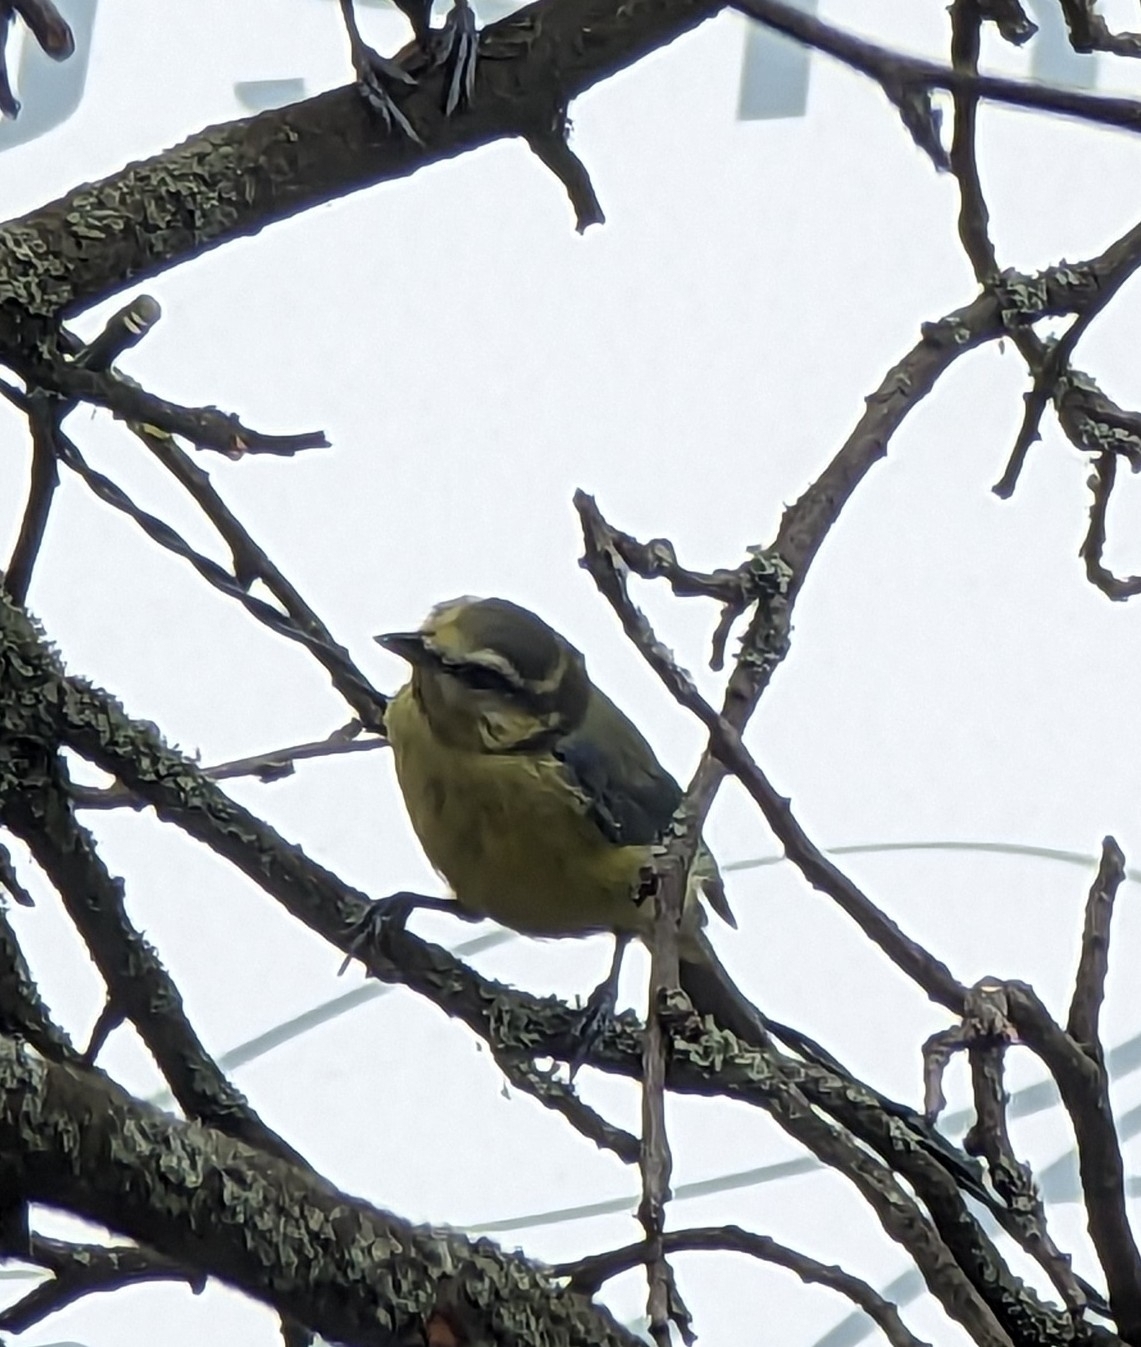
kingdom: Animalia
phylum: Chordata
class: Aves
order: Passeriformes
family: Paridae
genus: Cyanistes
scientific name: Cyanistes caeruleus
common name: Eurasian blue tit
